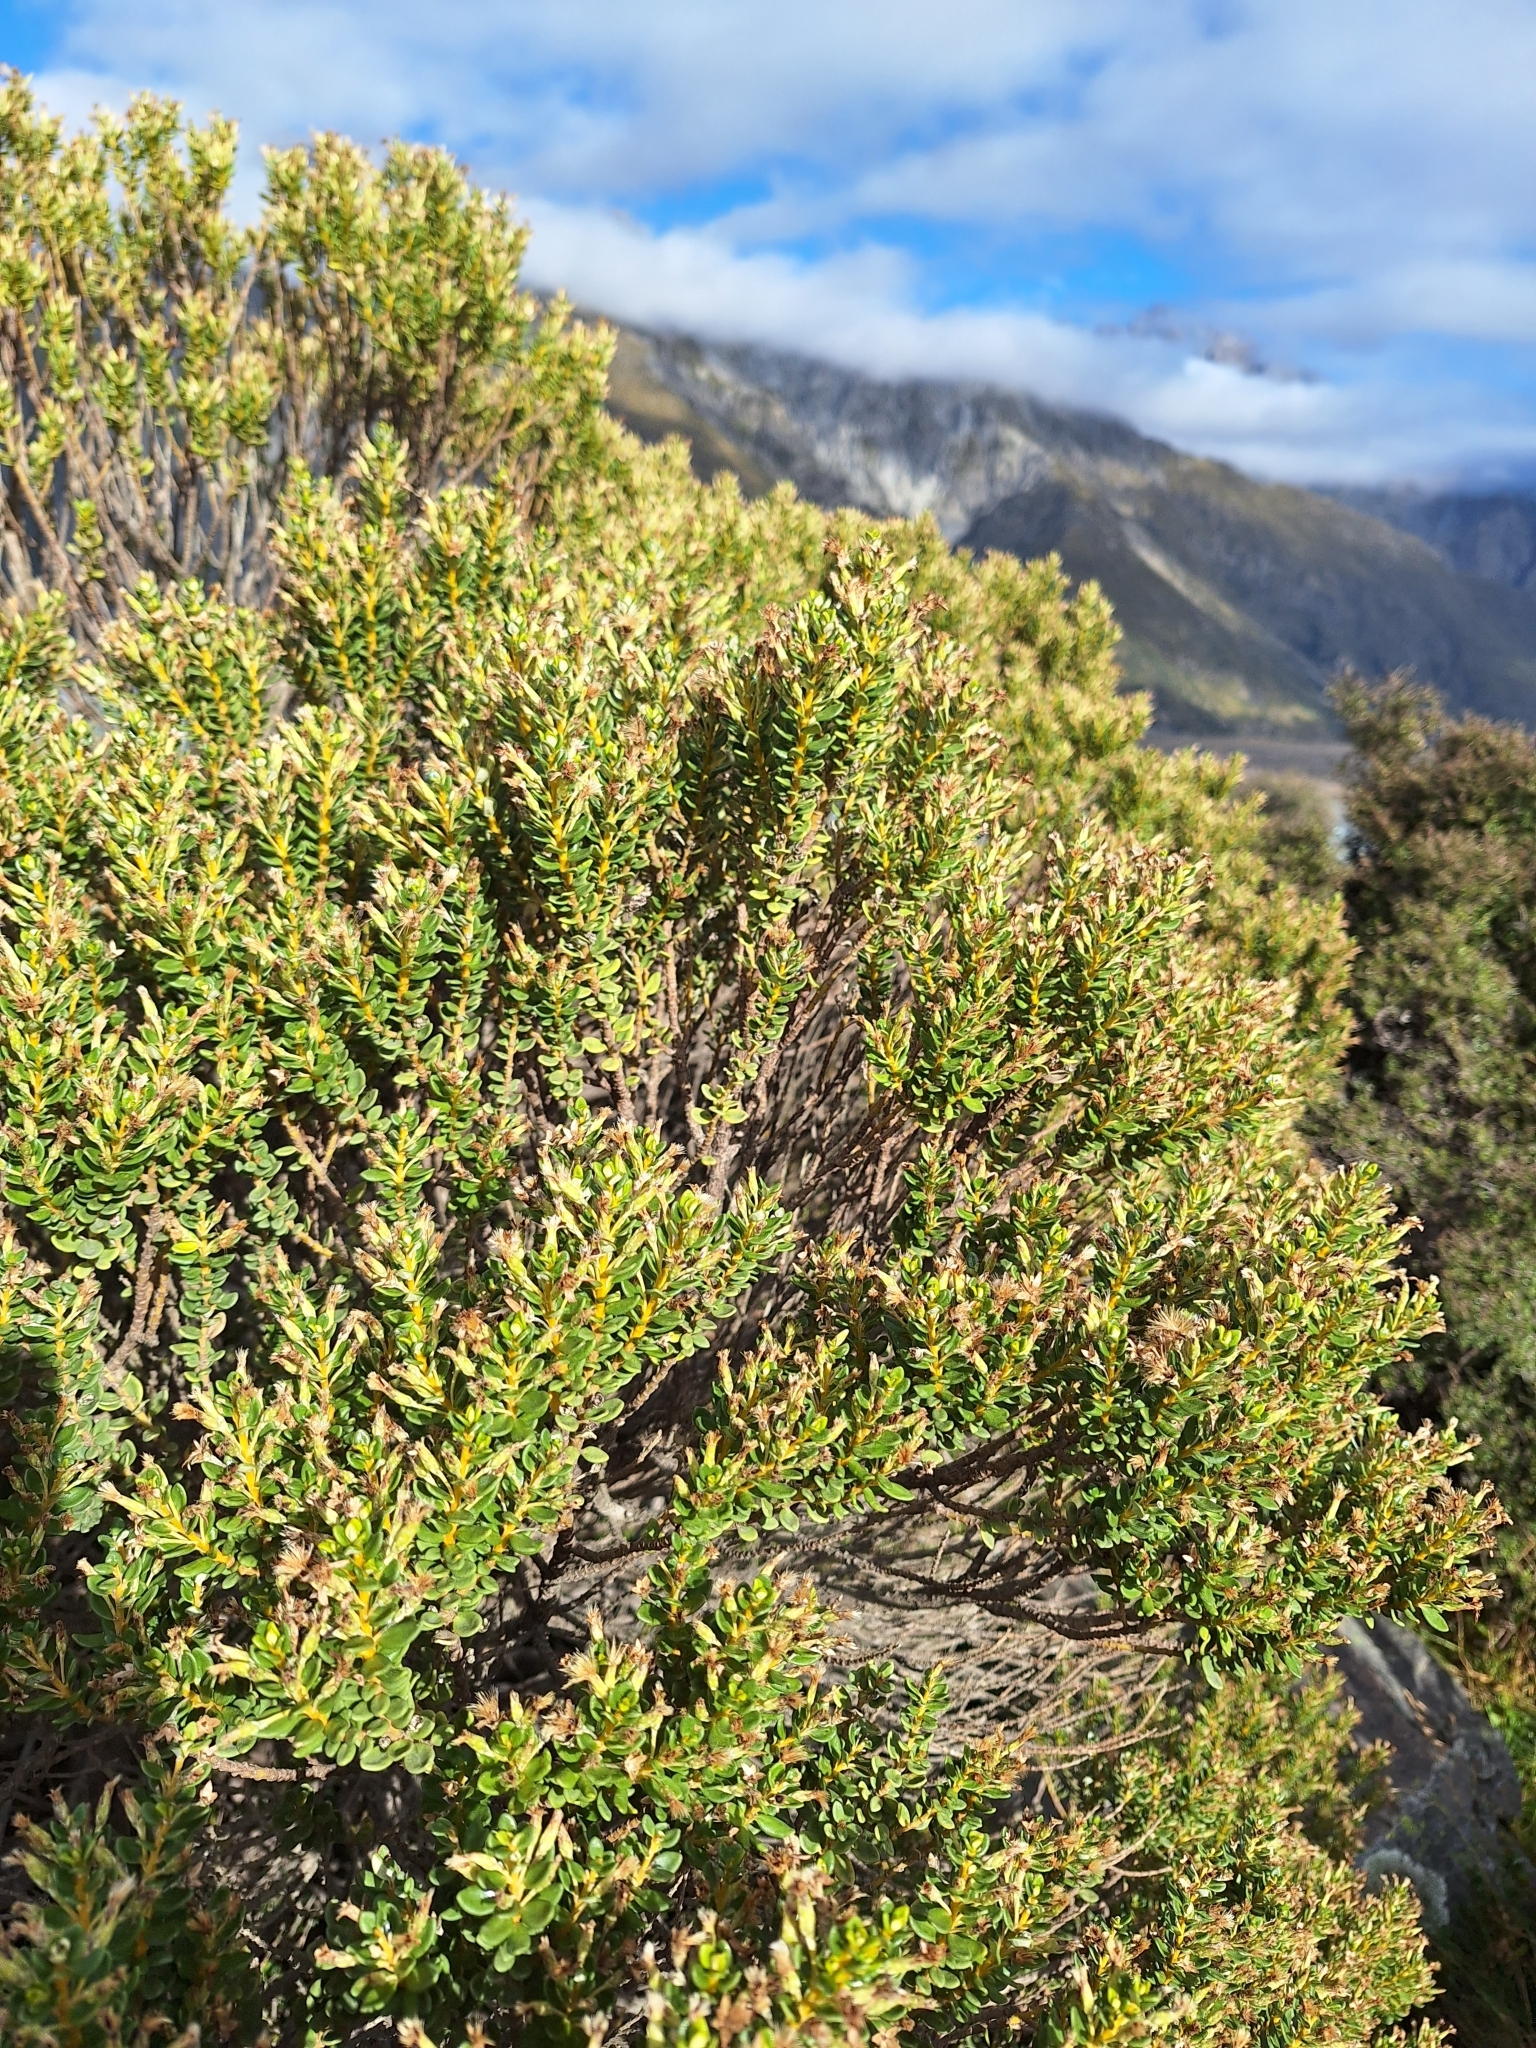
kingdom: Plantae
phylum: Tracheophyta
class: Magnoliopsida
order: Asterales
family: Asteraceae
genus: Olearia
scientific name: Olearia nummularifolia
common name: Sticky daisybush
